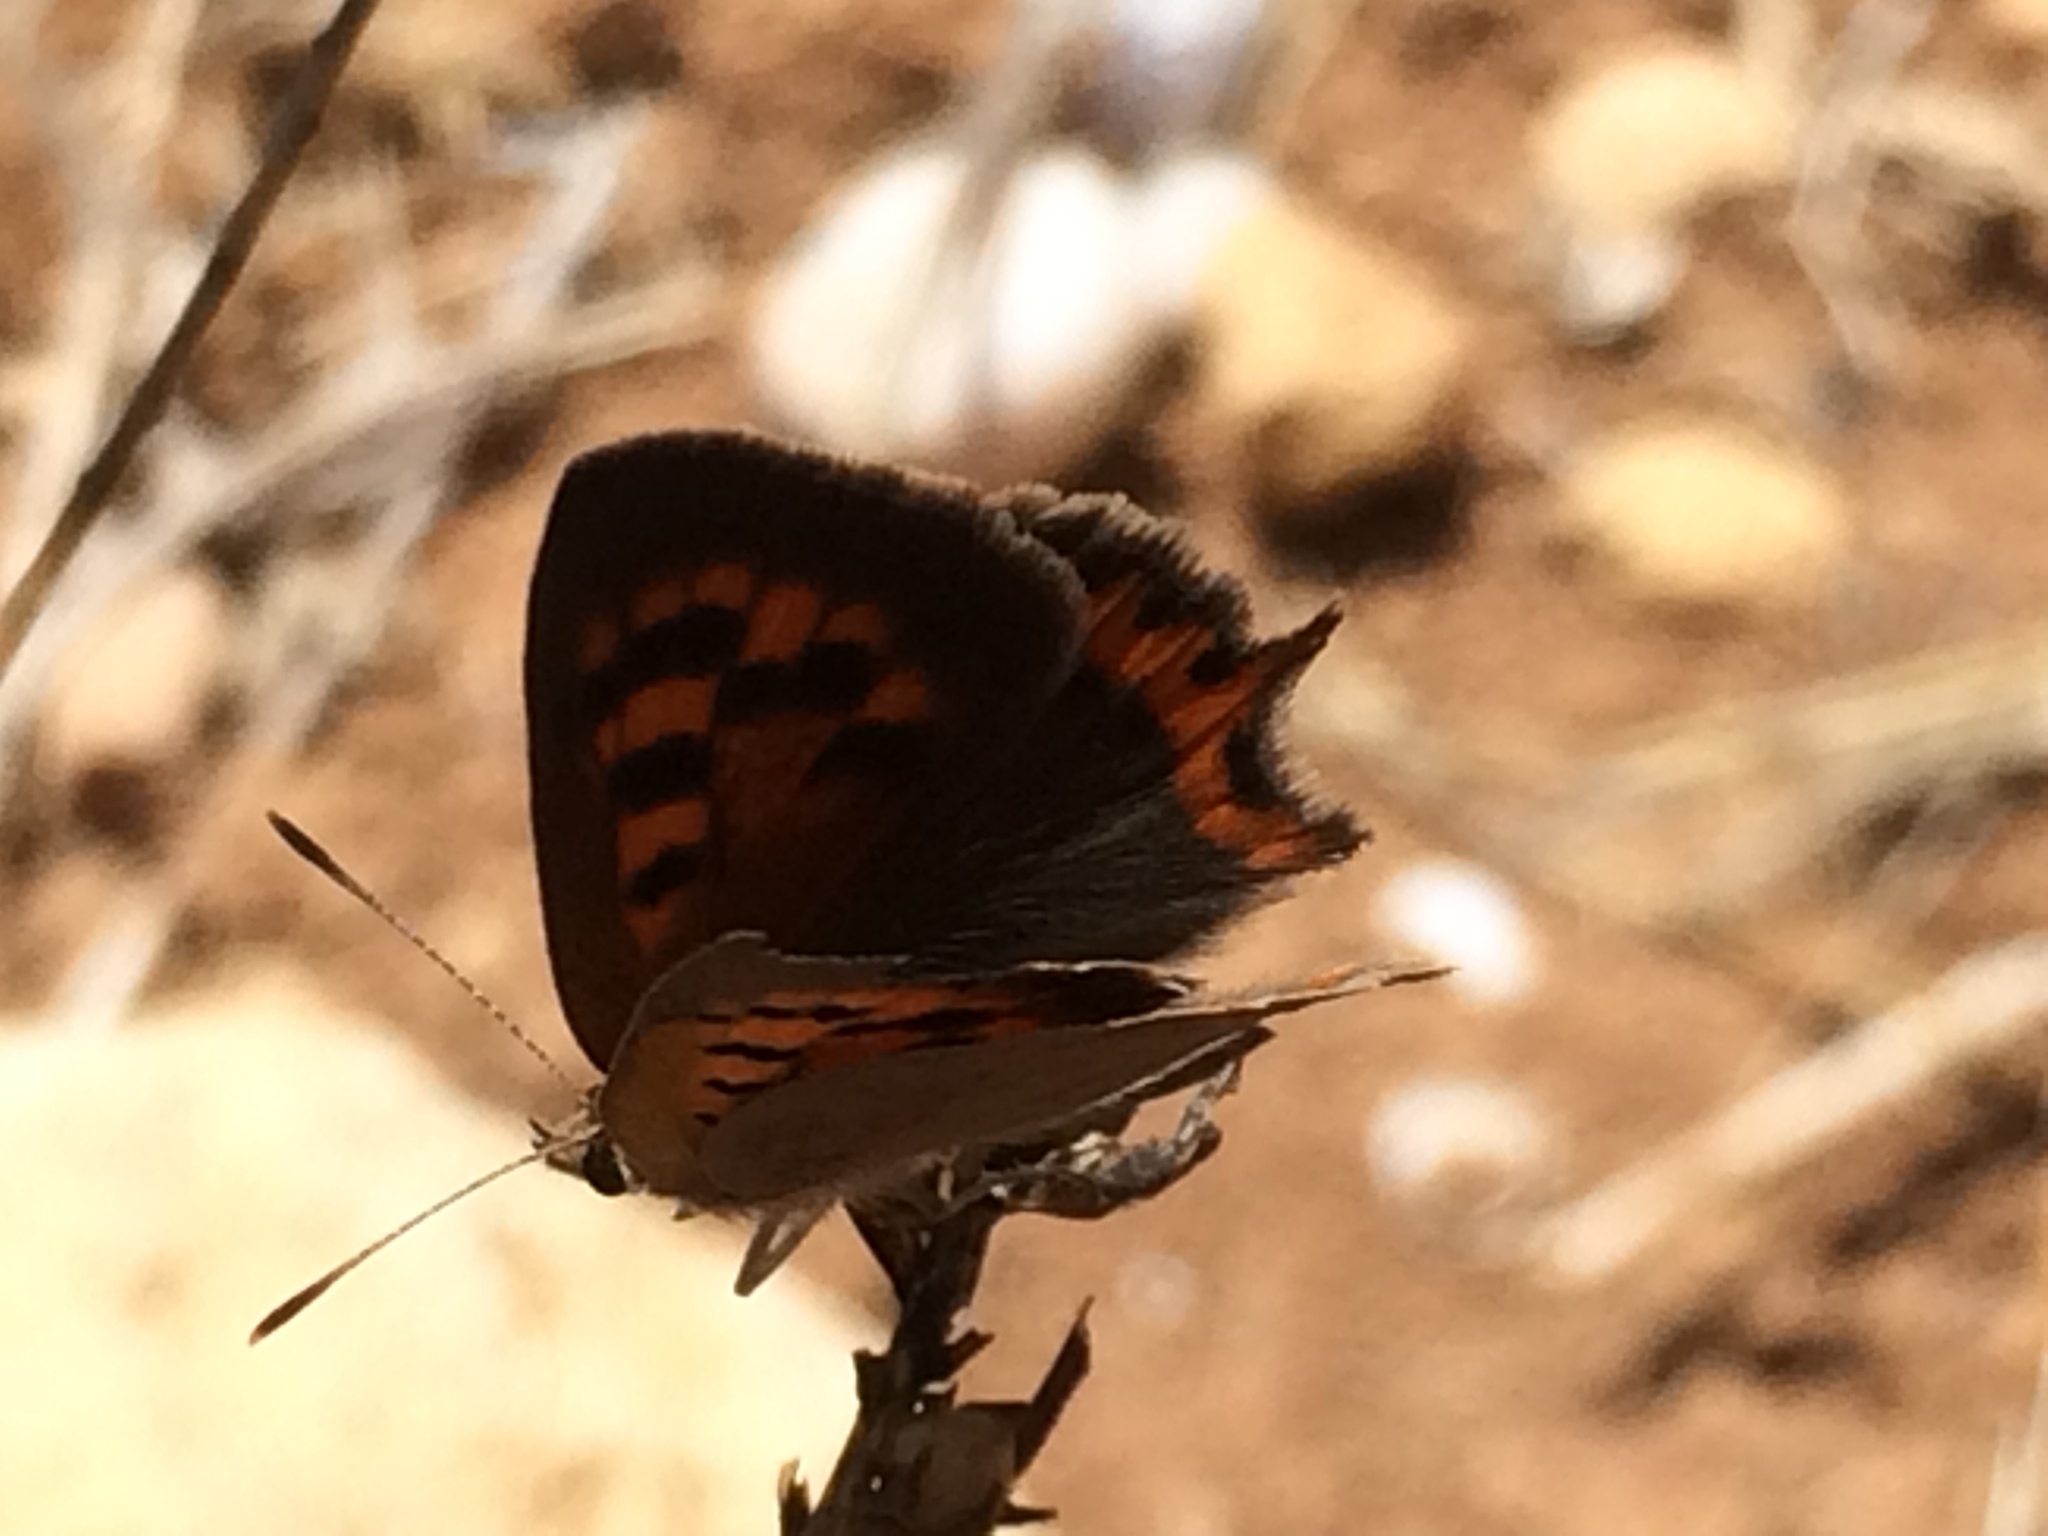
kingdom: Animalia
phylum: Arthropoda
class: Insecta
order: Lepidoptera
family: Lycaenidae
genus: Lycaena
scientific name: Lycaena phlaeas
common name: Small copper
